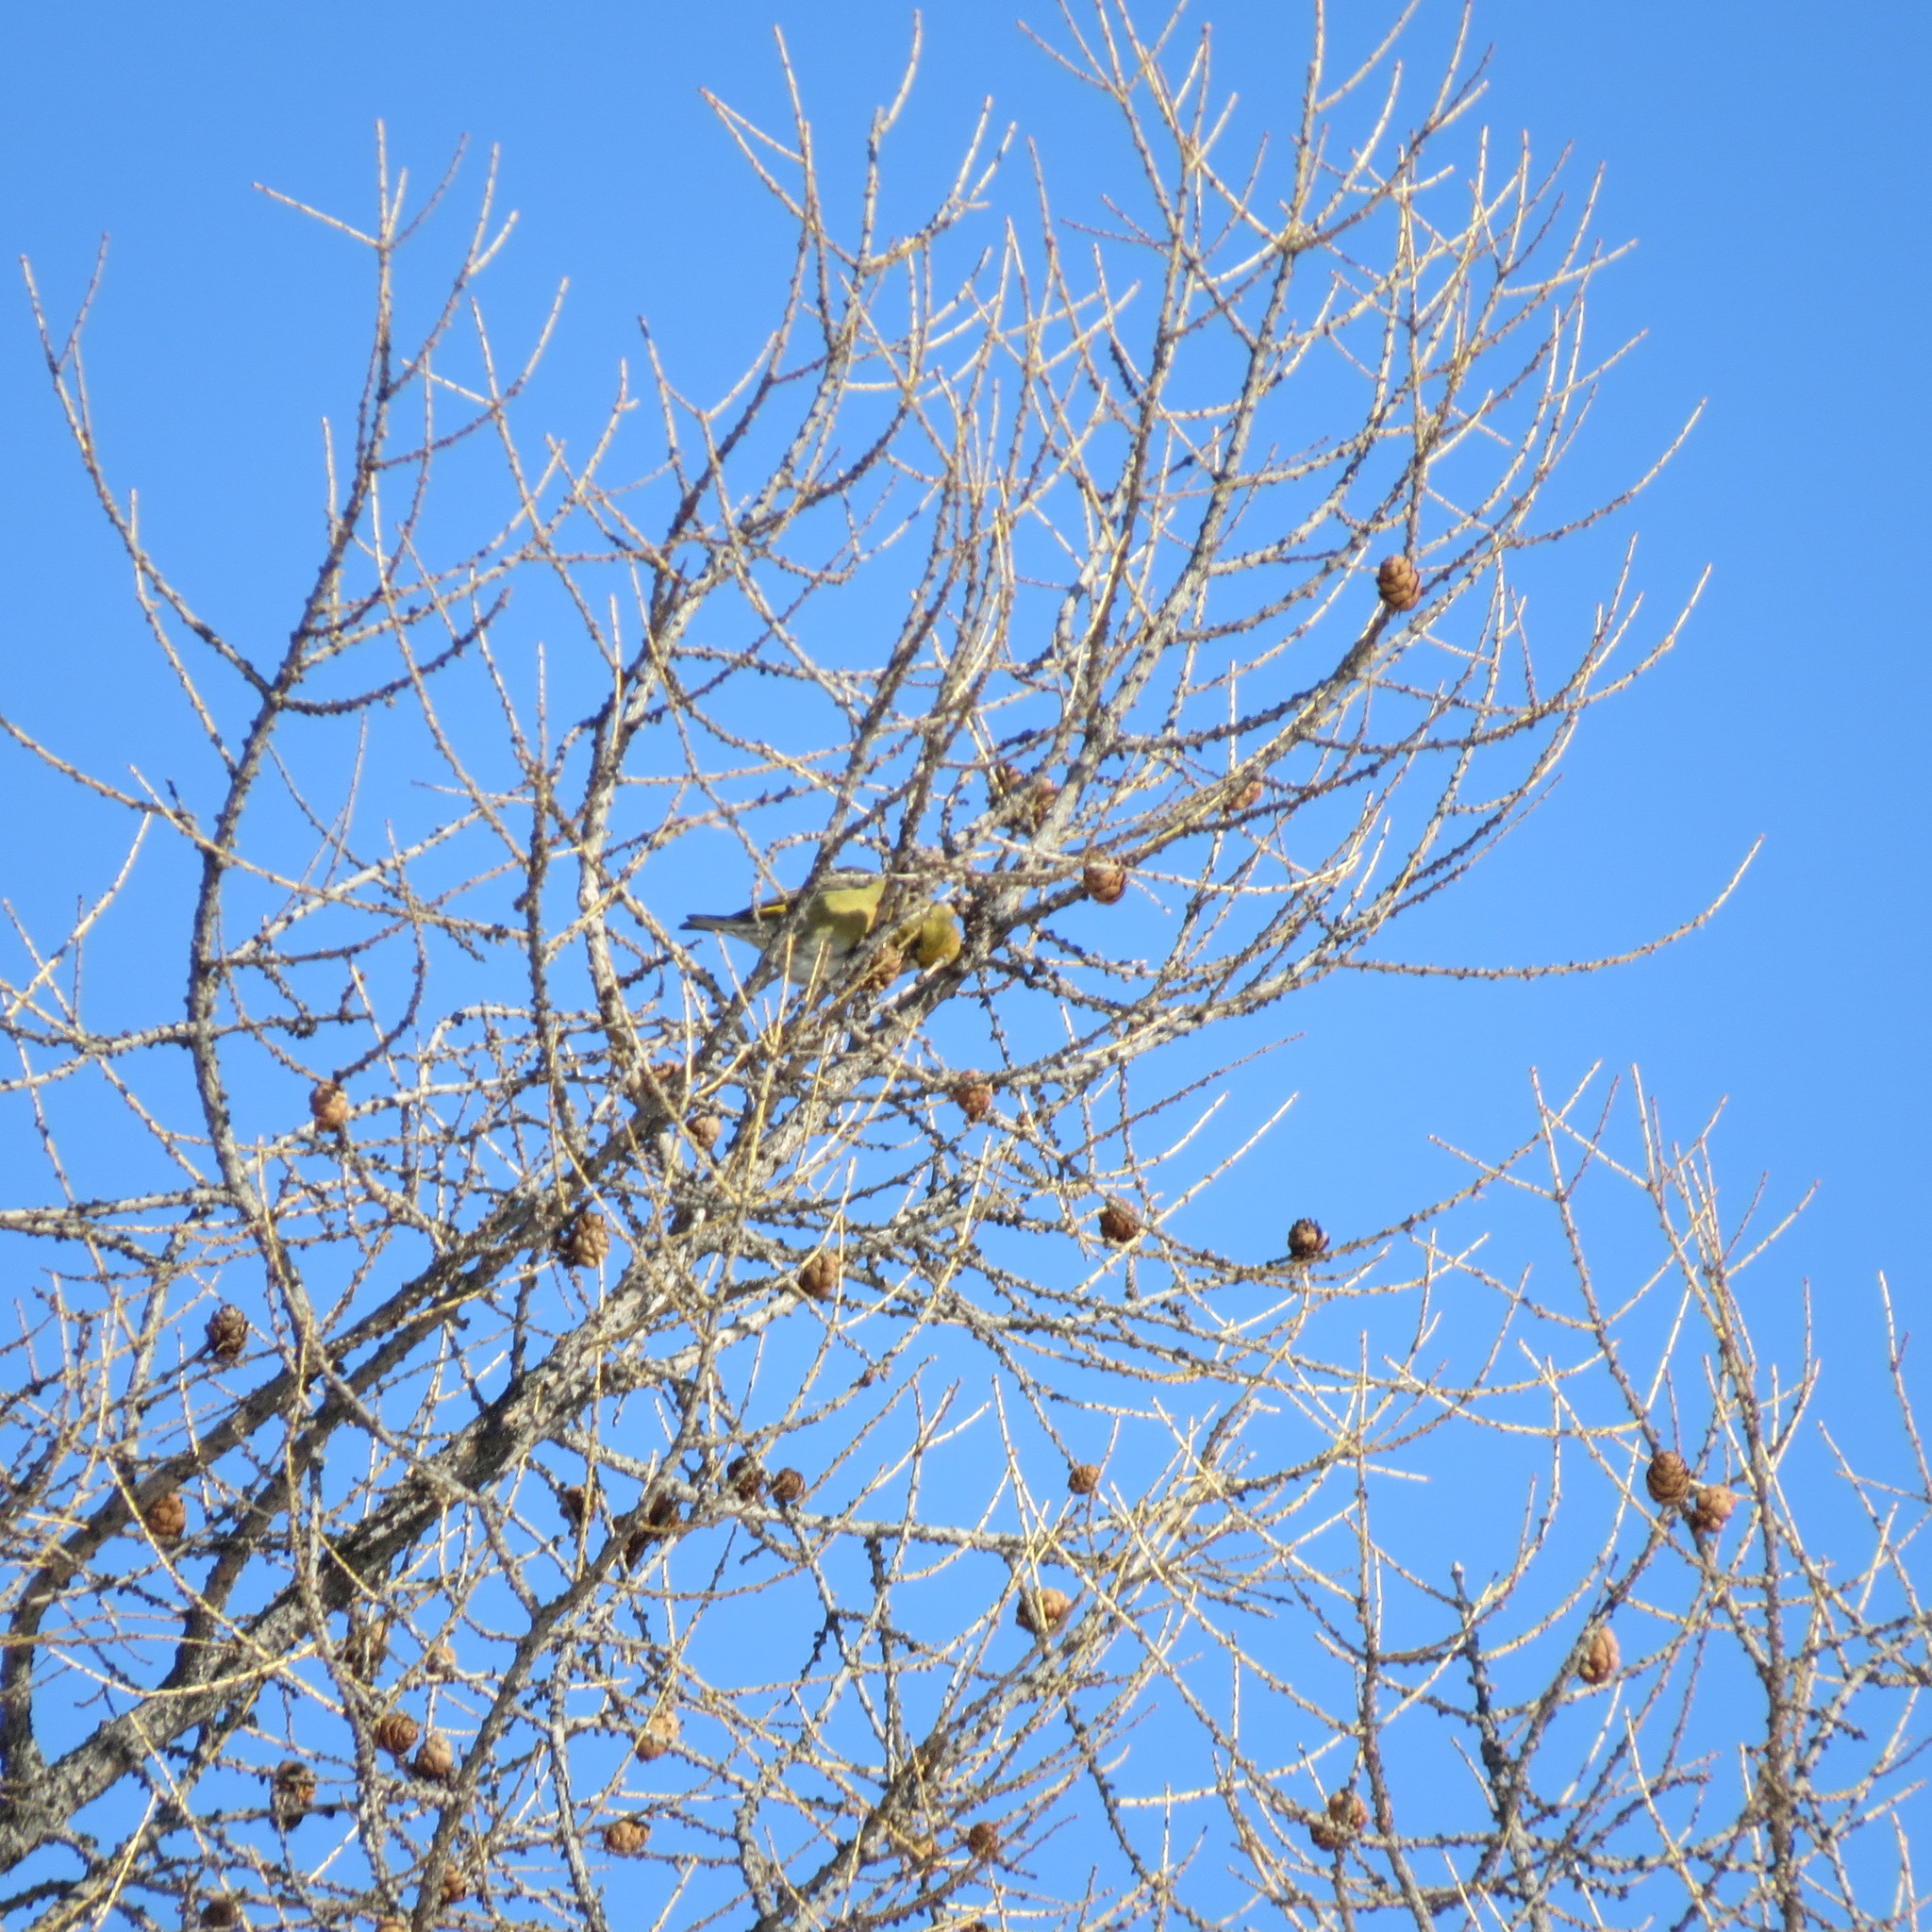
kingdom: Animalia
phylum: Chordata
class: Aves
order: Passeriformes
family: Fringillidae
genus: Loxia
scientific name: Loxia curvirostra
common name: Red crossbill
